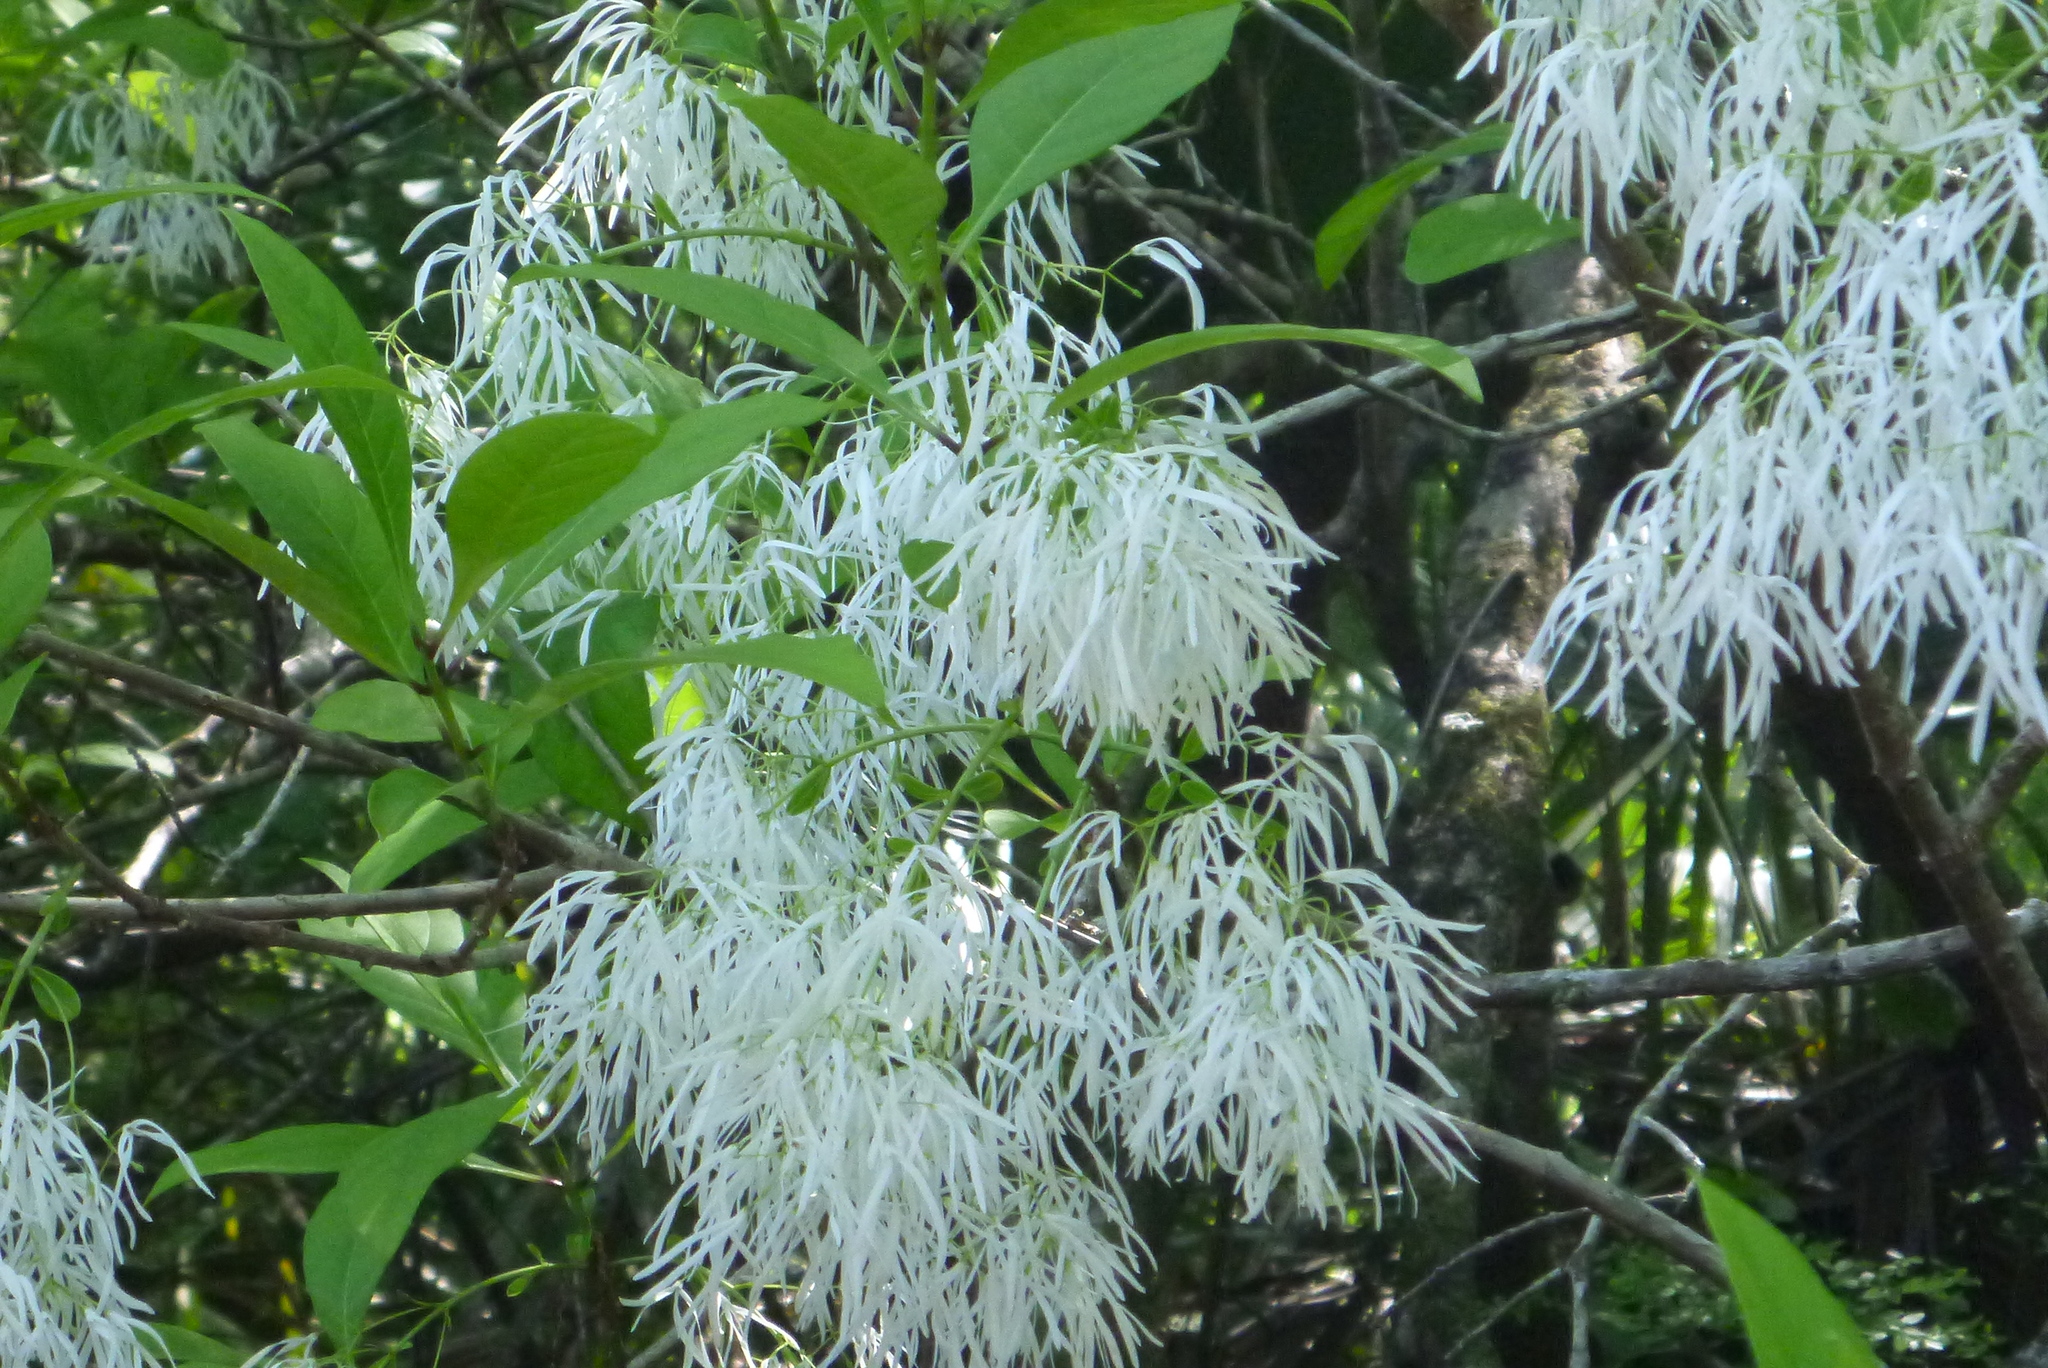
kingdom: Plantae
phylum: Tracheophyta
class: Magnoliopsida
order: Lamiales
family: Oleaceae
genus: Chionanthus
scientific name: Chionanthus virginicus
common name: American fringetree
